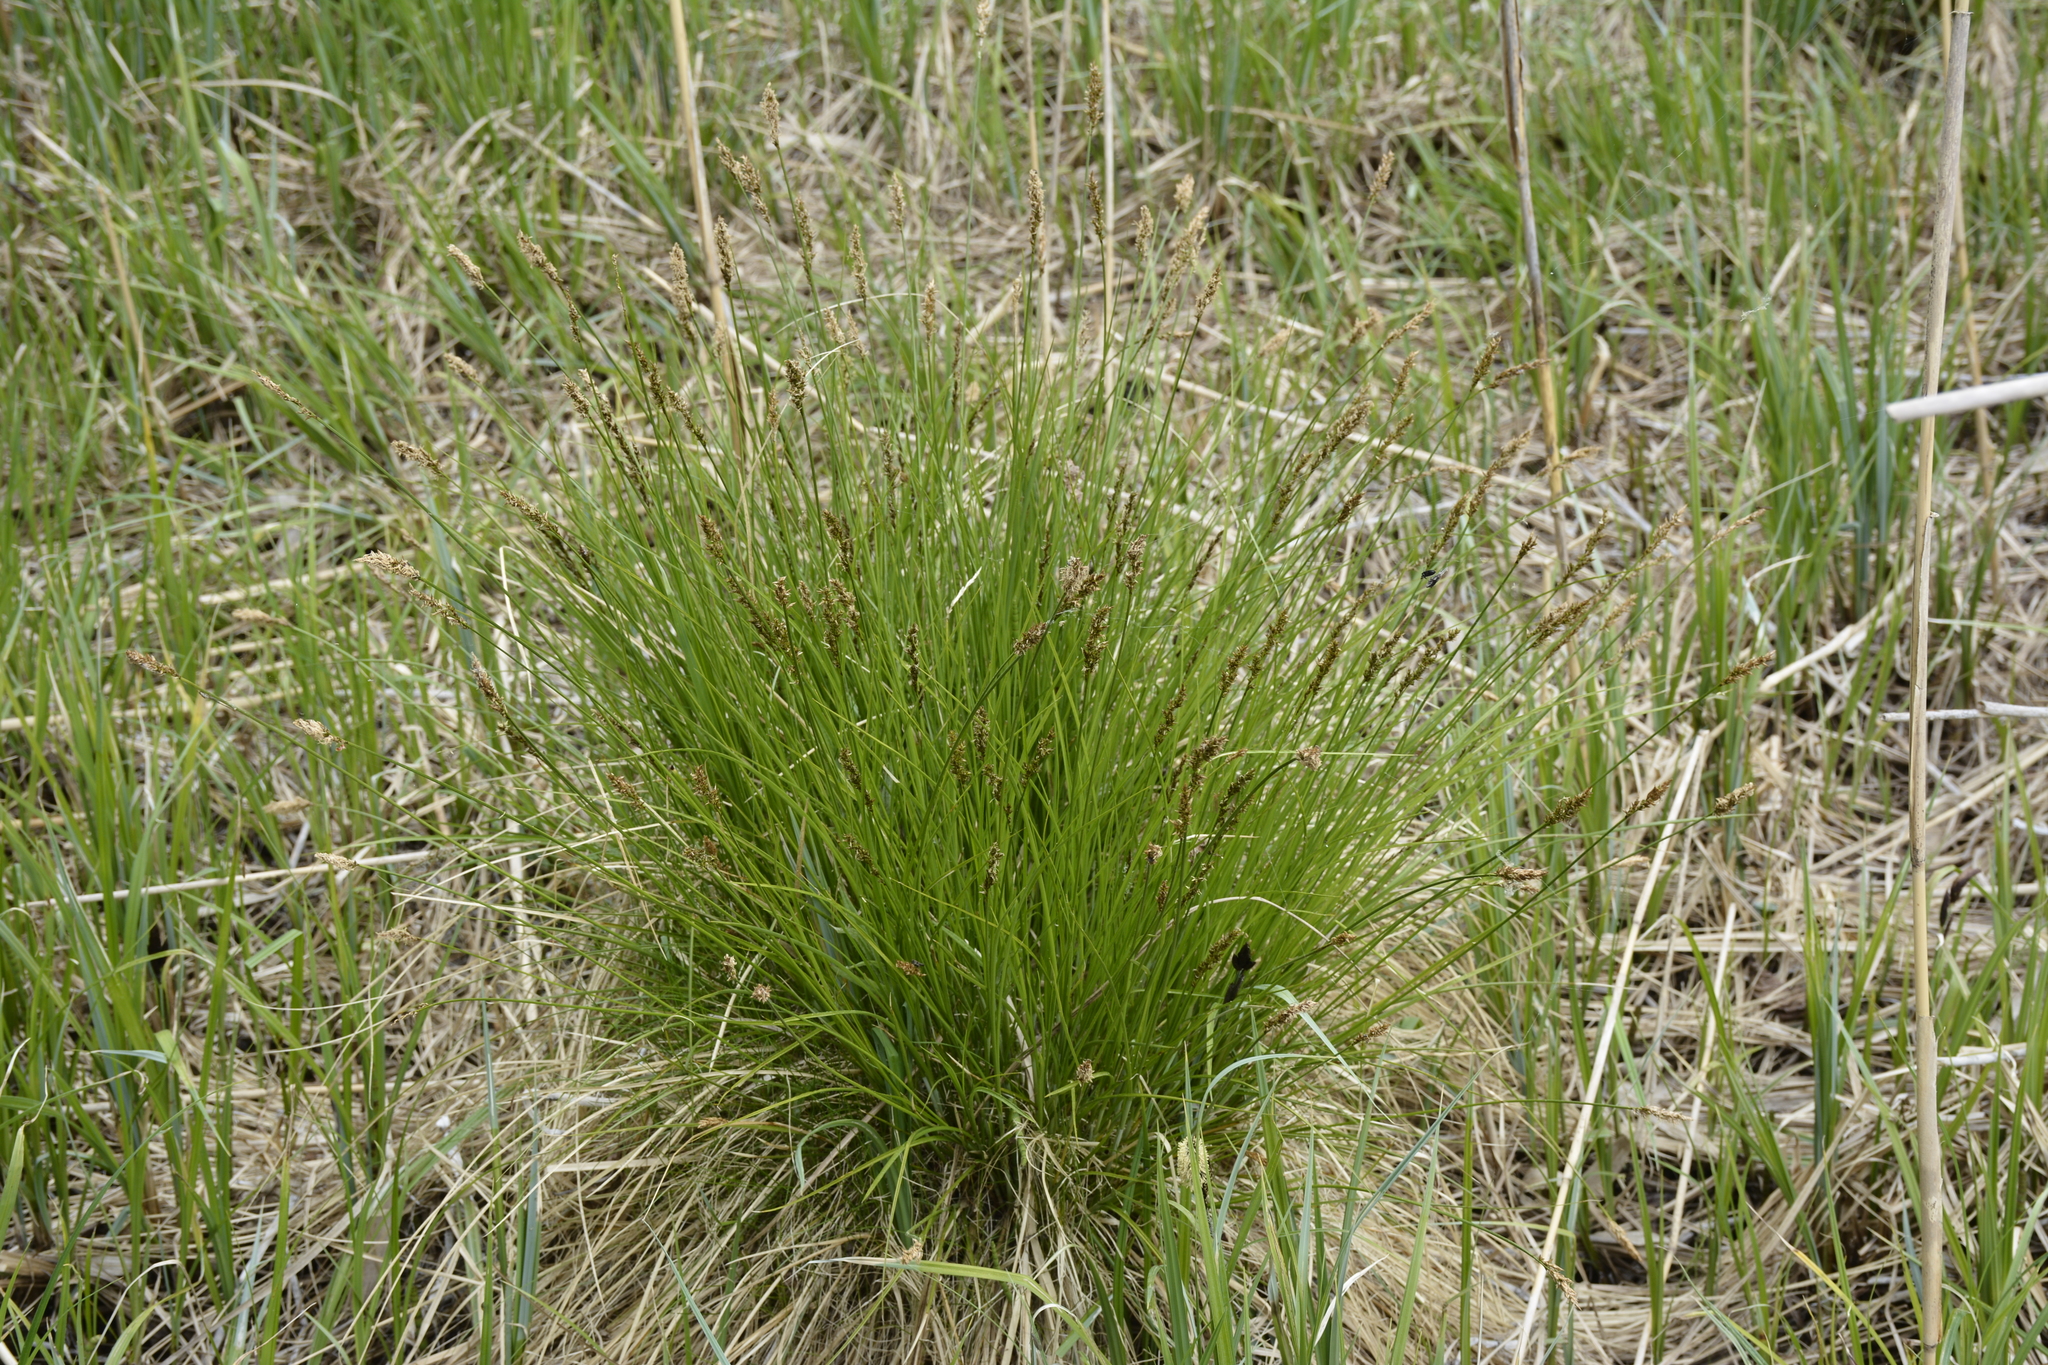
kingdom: Plantae
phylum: Tracheophyta
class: Liliopsida
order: Poales
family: Cyperaceae
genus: Carex
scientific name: Carex appropinquata
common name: Fibrous tussock-sedge
